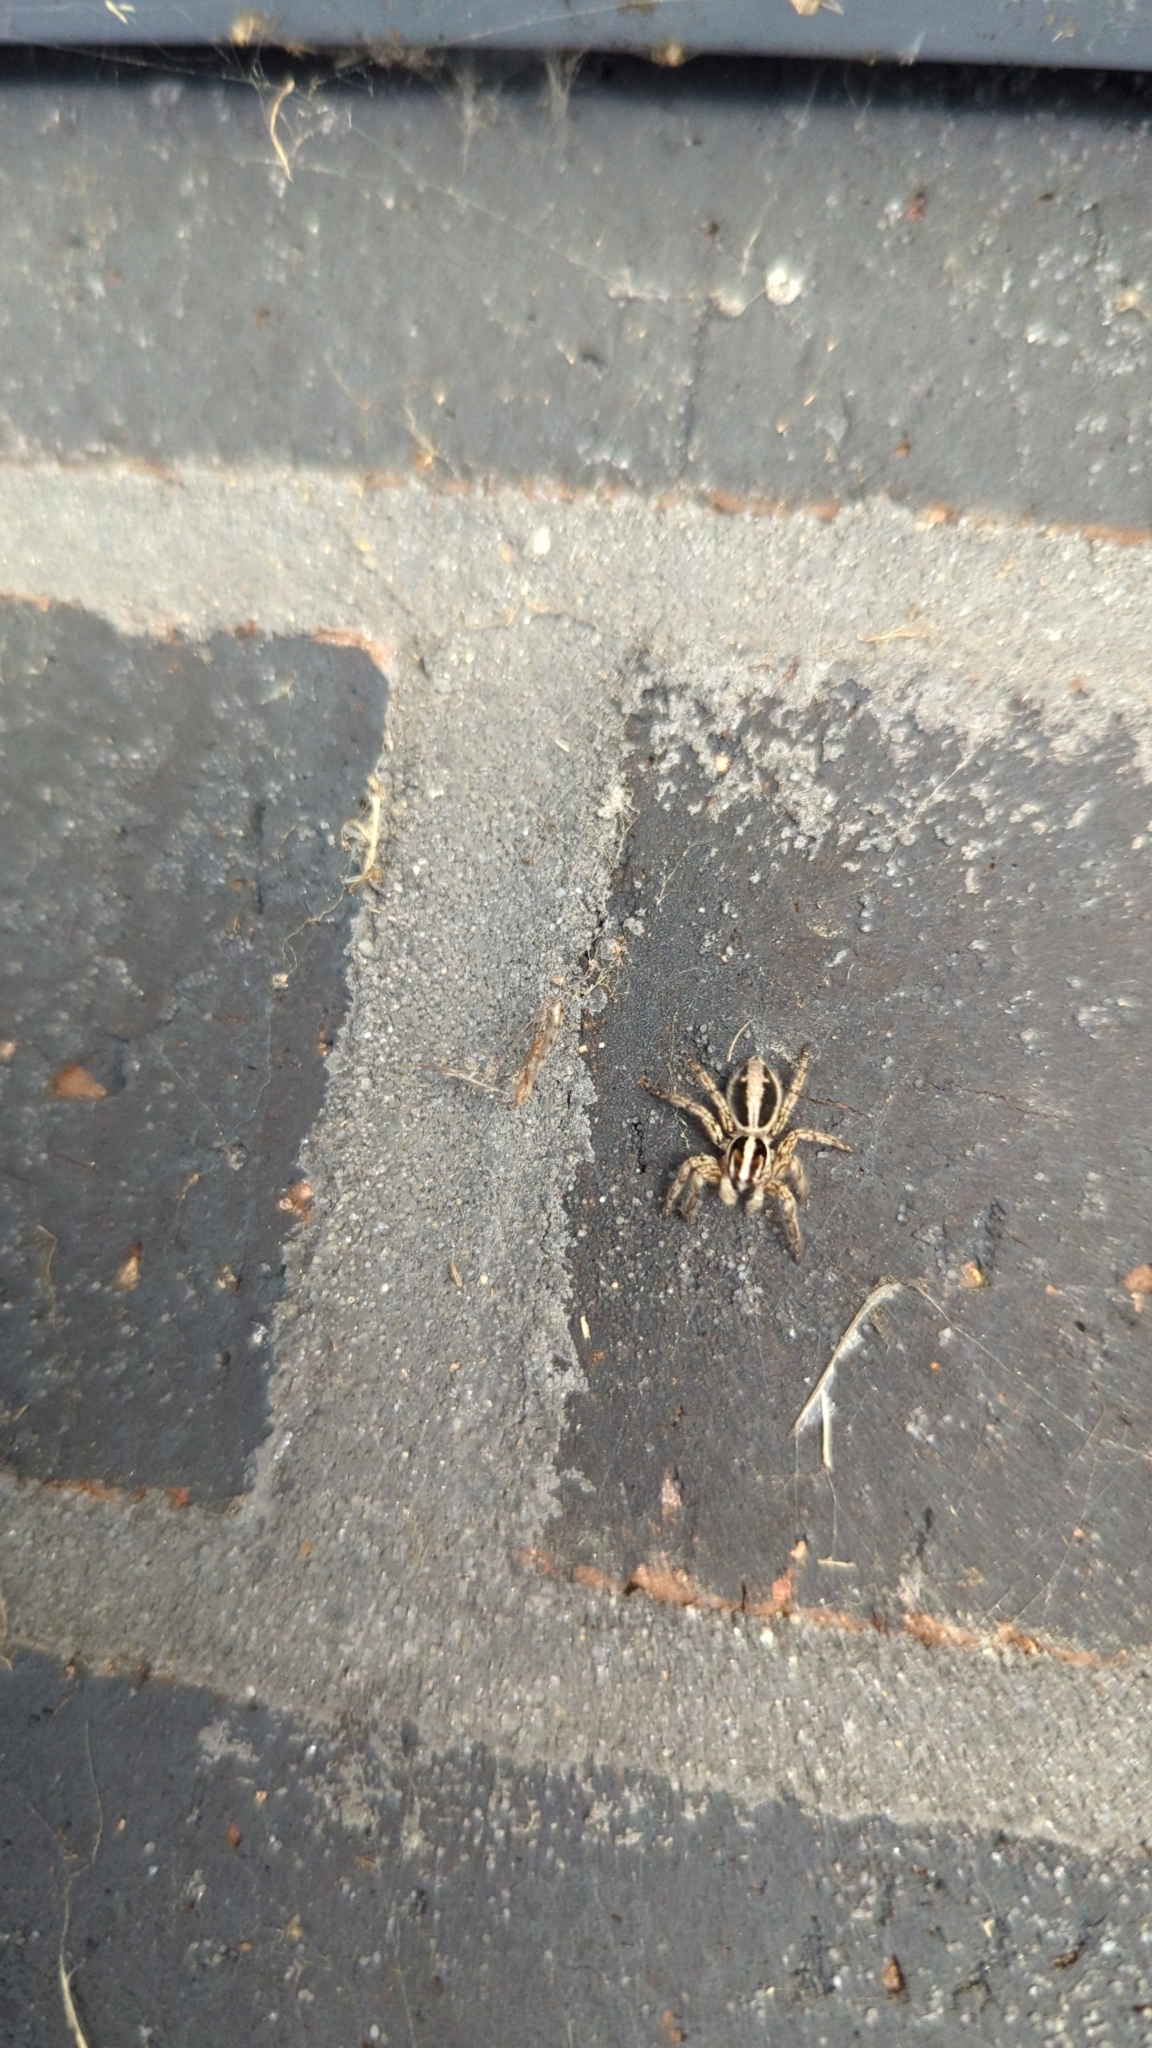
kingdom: Animalia
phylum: Arthropoda
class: Arachnida
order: Araneae
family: Salticidae
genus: Plexippus
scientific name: Plexippus paykulli
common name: Pantropical jumper
